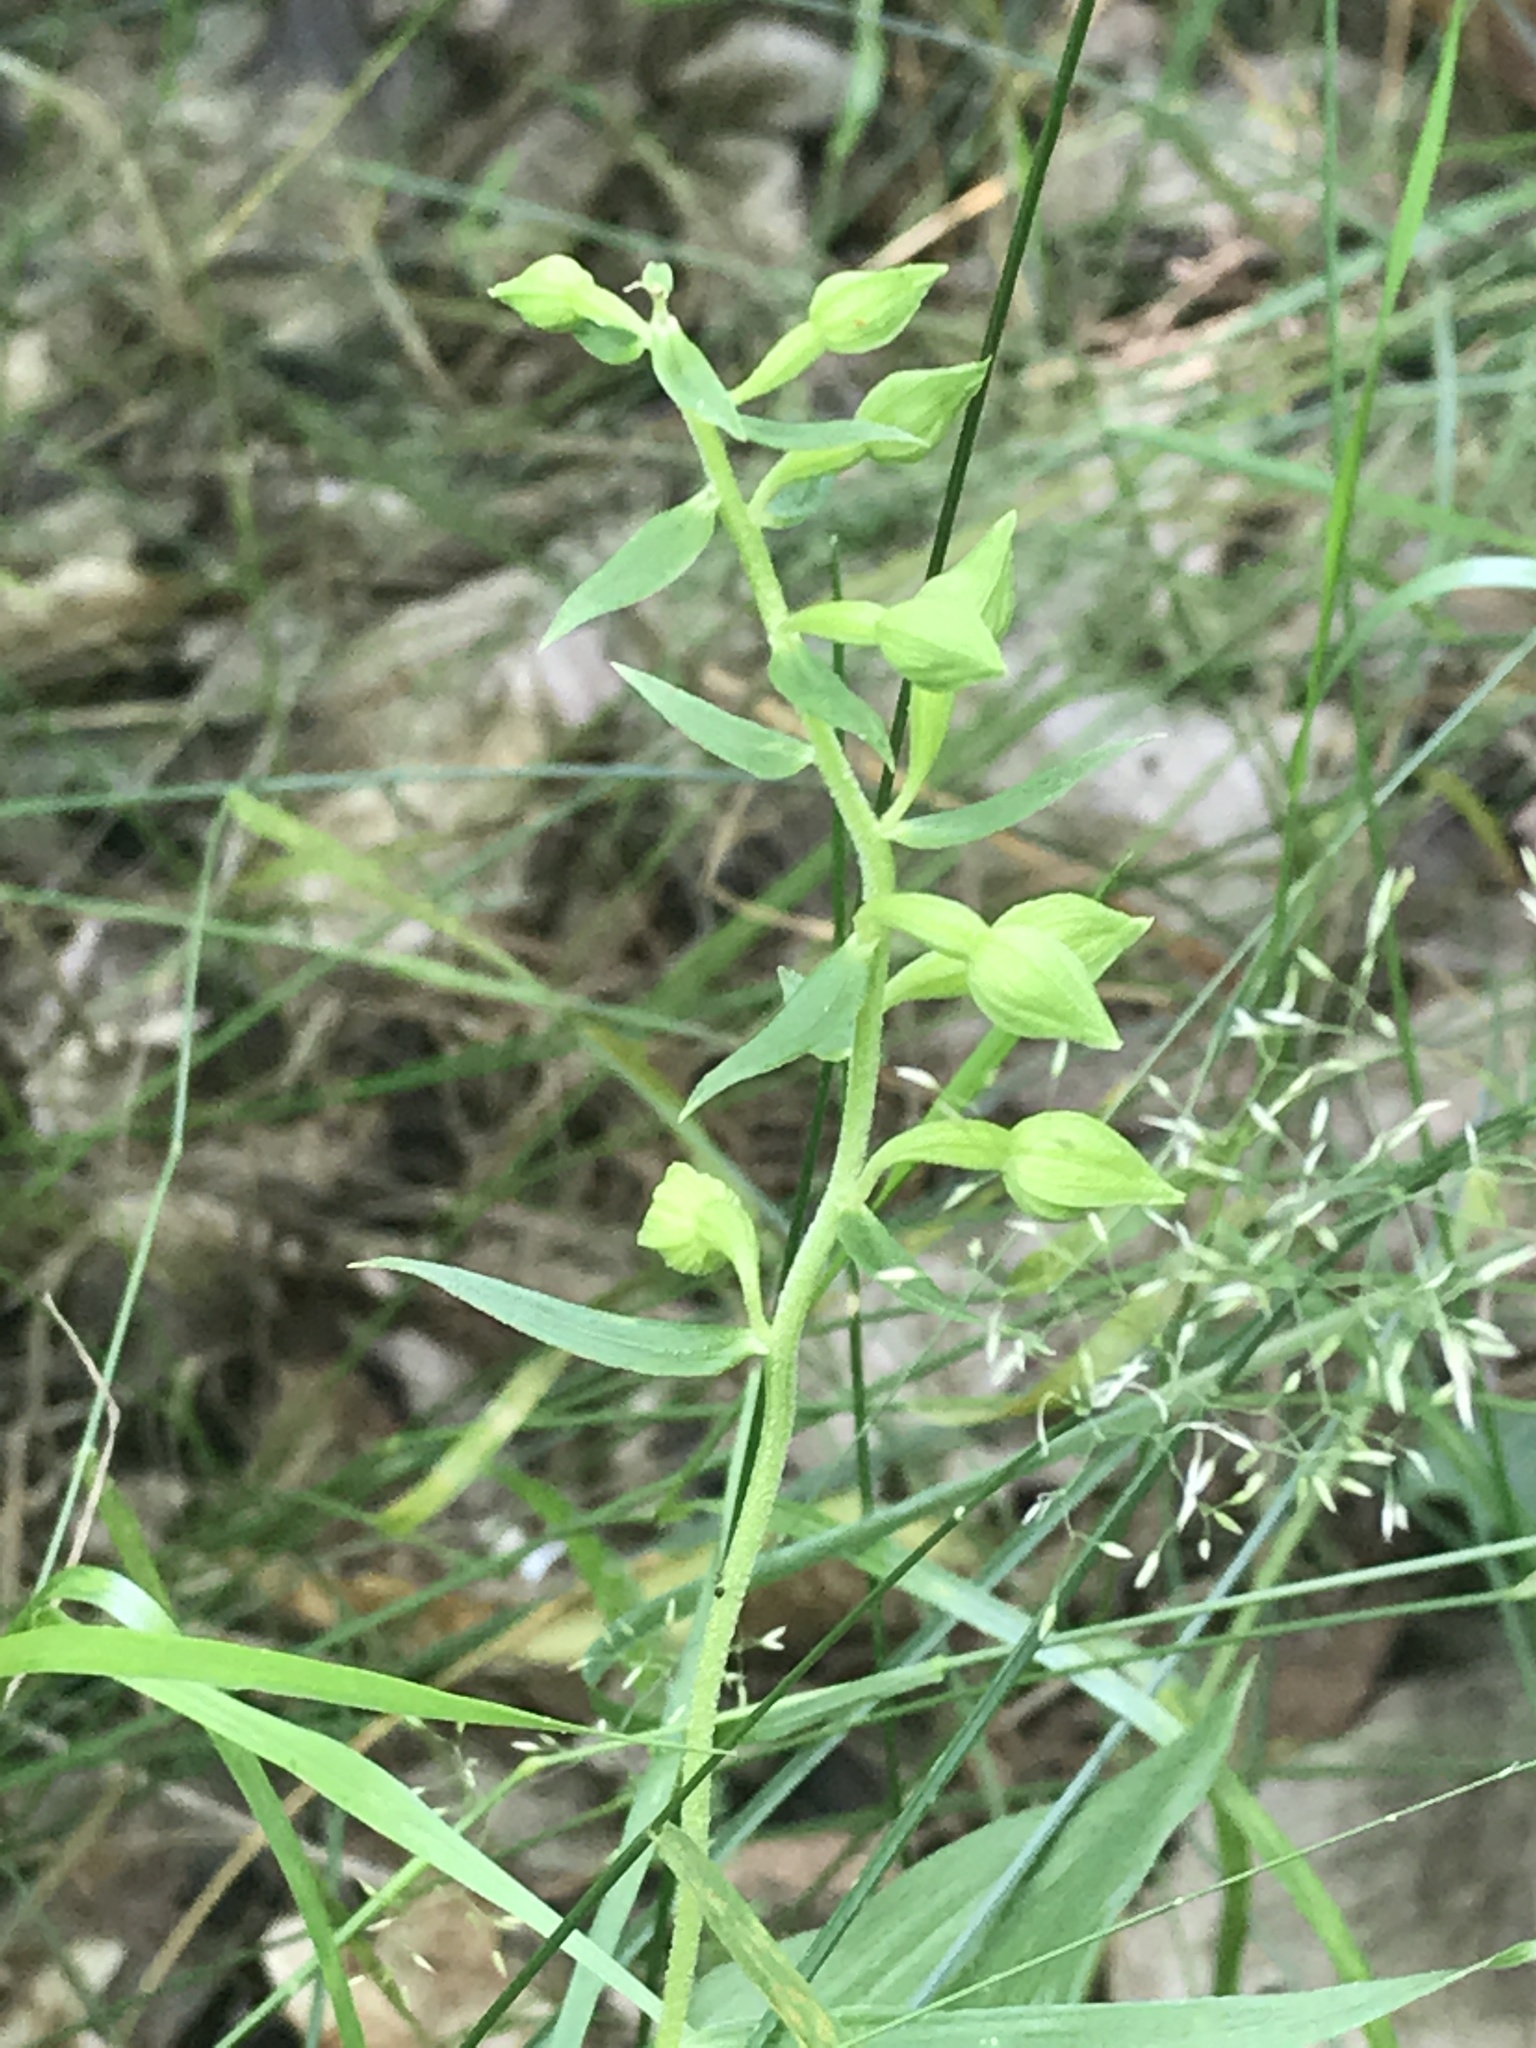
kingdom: Plantae
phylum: Tracheophyta
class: Liliopsida
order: Asparagales
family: Orchidaceae
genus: Epipactis
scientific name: Epipactis helleborine
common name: Broad-leaved helleborine
